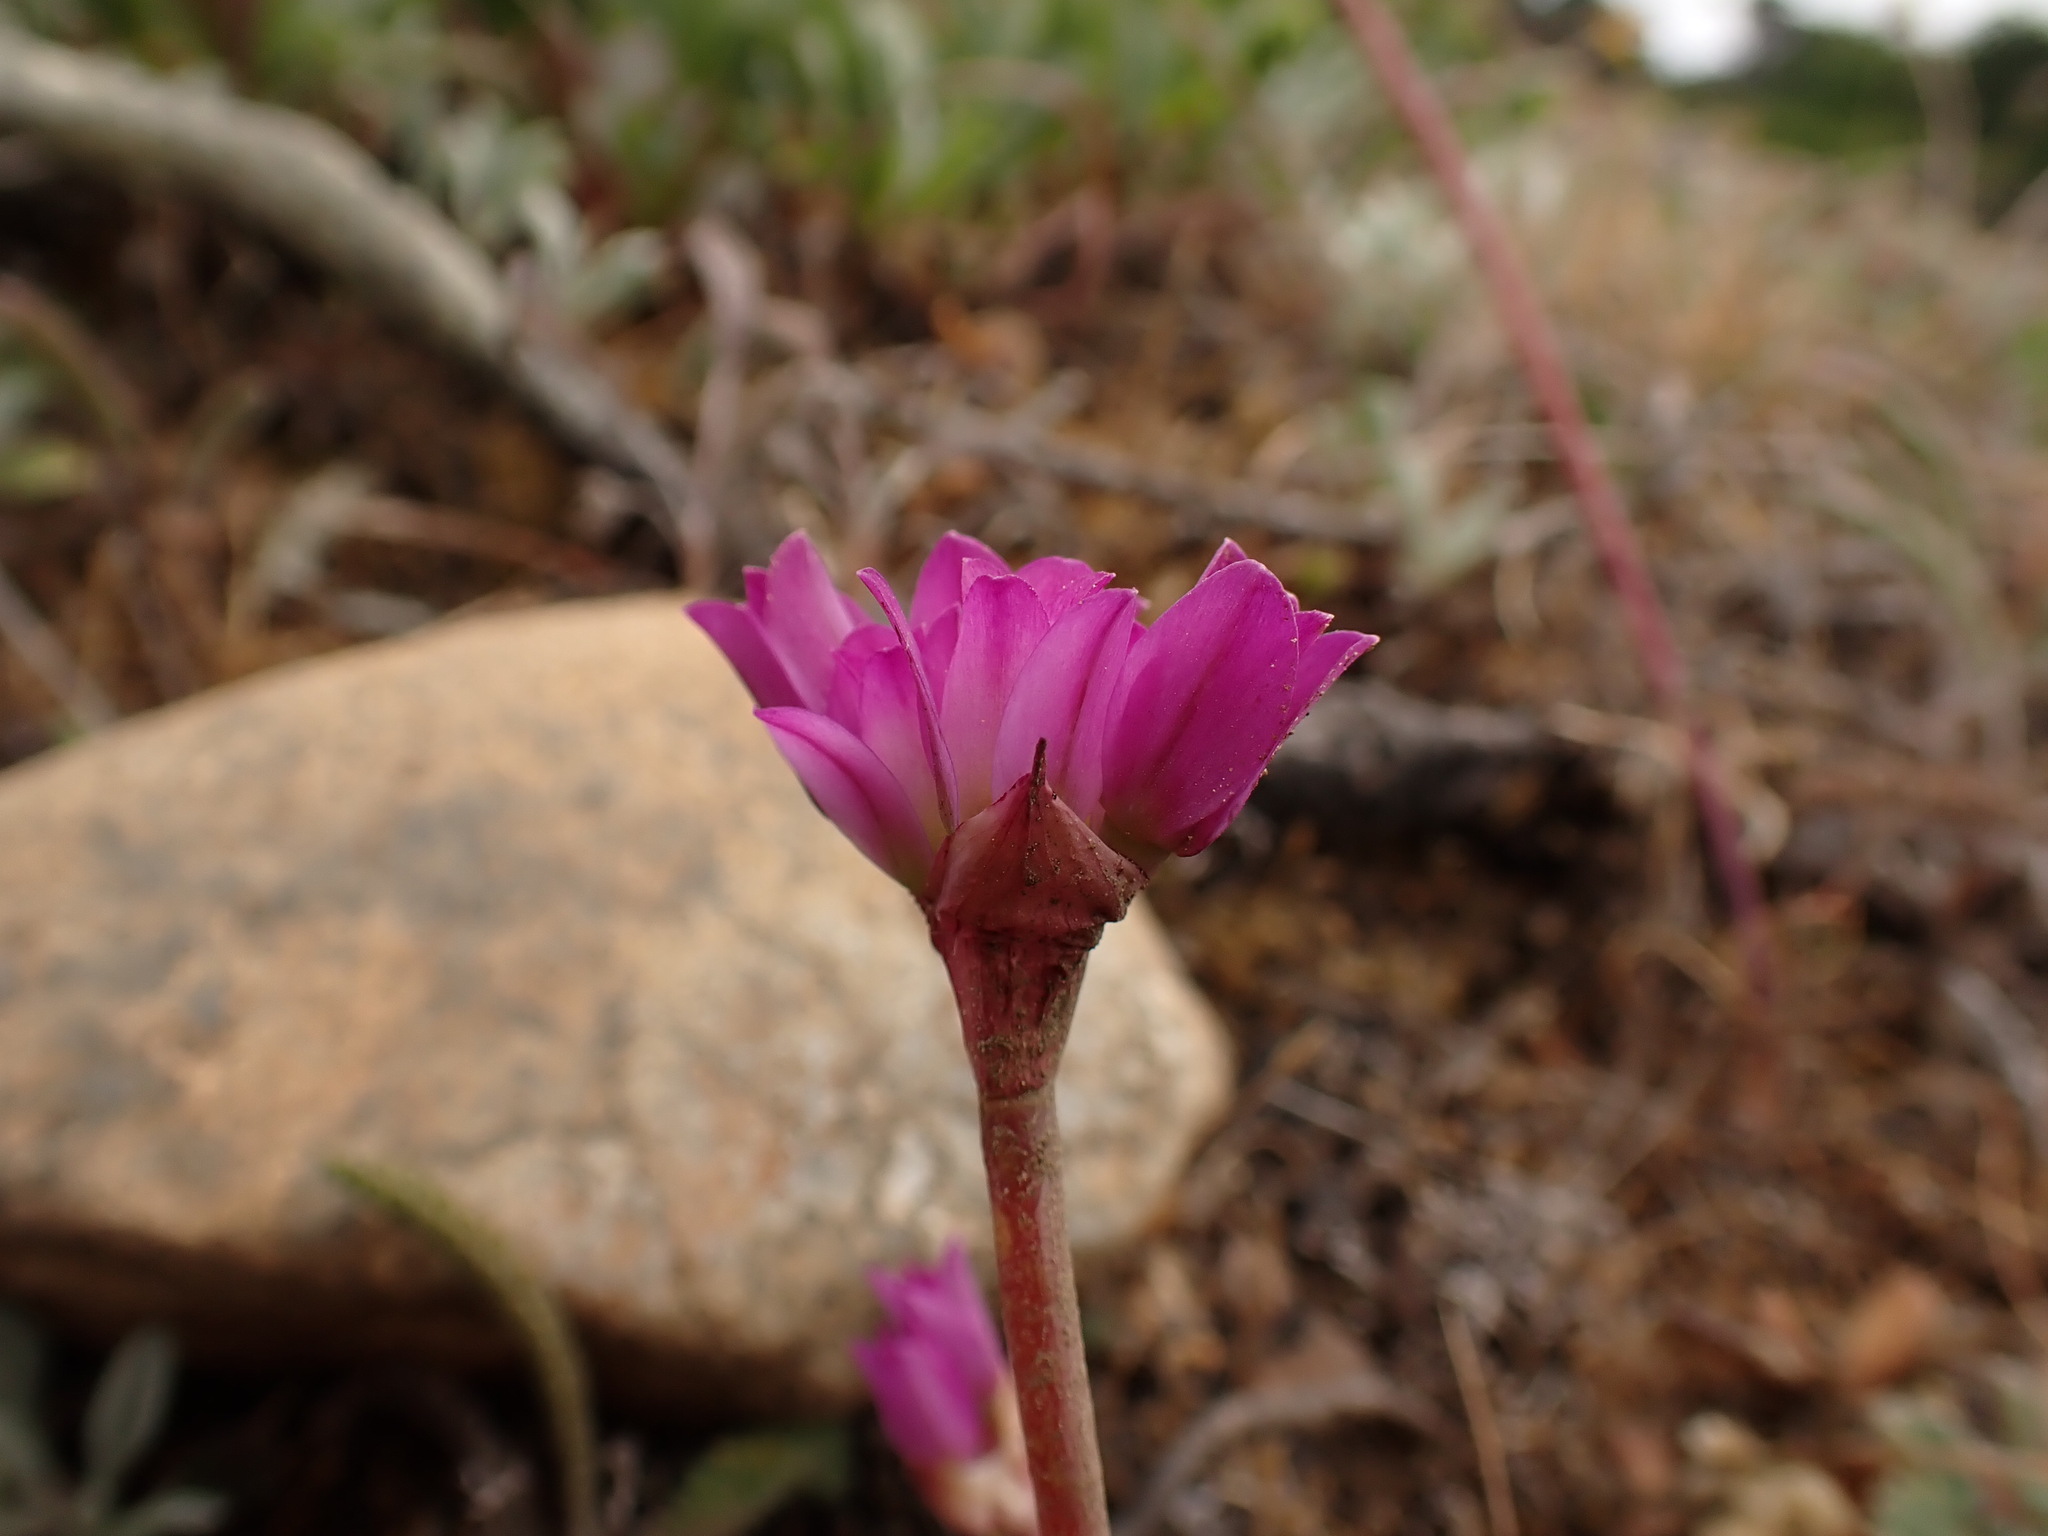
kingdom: Plantae
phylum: Tracheophyta
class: Liliopsida
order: Asparagales
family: Amaryllidaceae
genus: Allium
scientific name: Allium dichlamydeum
